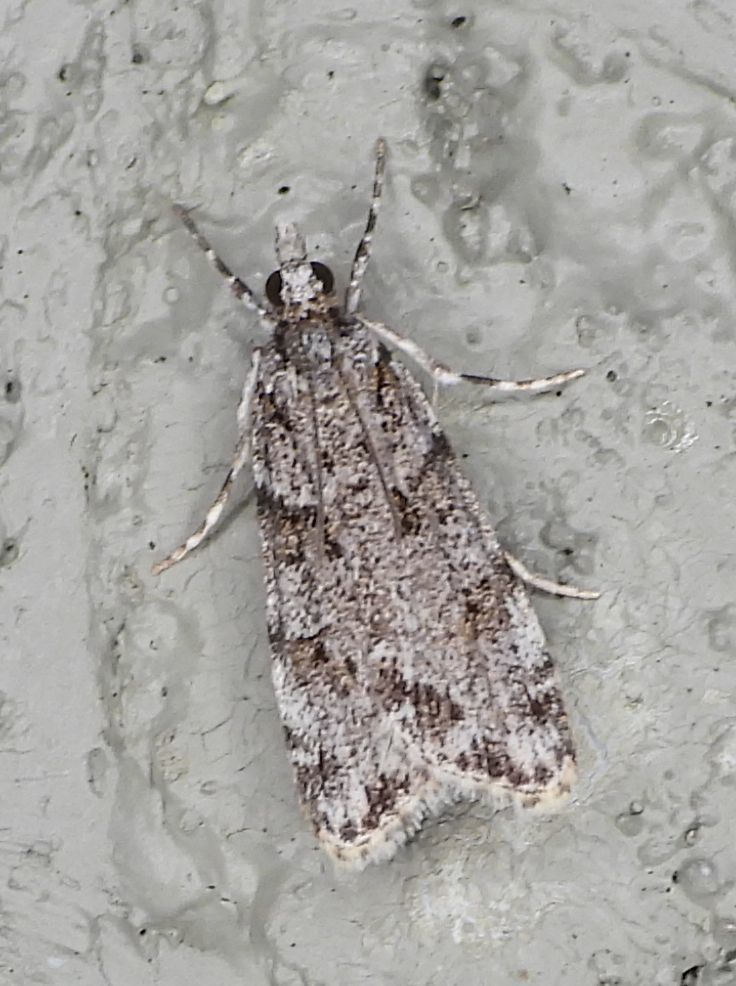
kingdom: Animalia
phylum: Arthropoda
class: Insecta
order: Lepidoptera
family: Crambidae
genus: Scoparia
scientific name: Scoparia biplagialis
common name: Double-striped scoparia moth
